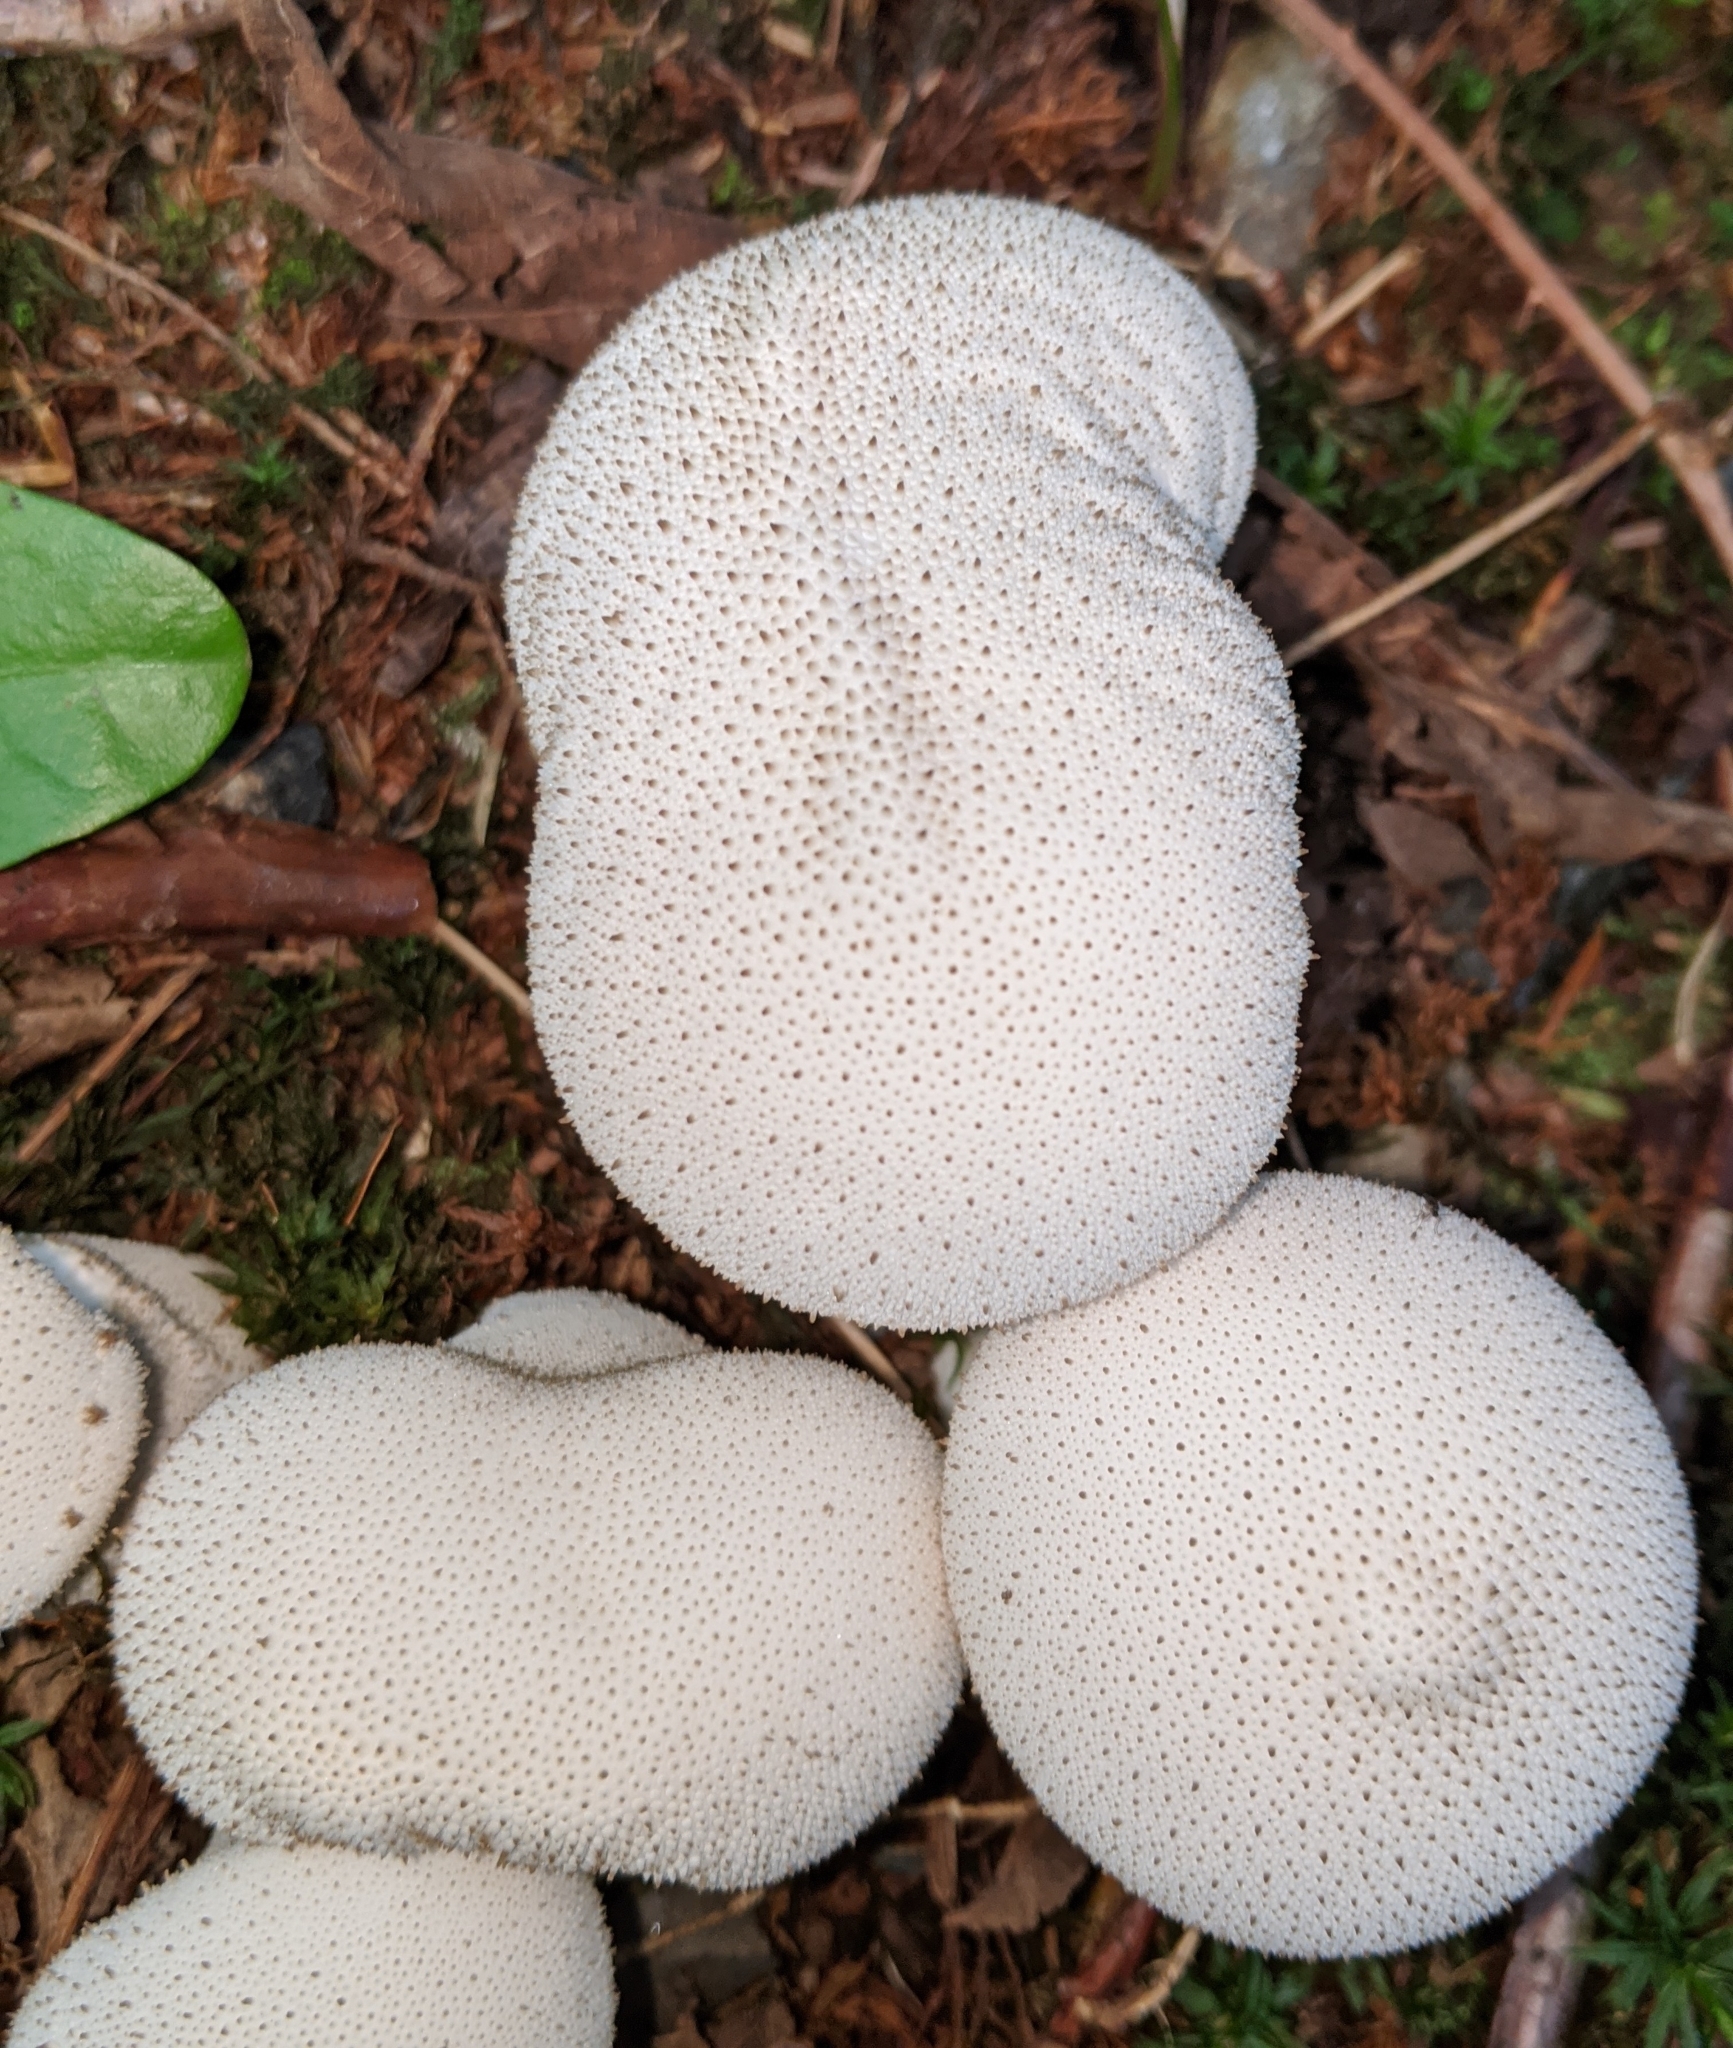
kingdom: Fungi
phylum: Basidiomycota
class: Agaricomycetes
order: Agaricales
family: Lycoperdaceae
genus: Lycoperdon
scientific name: Lycoperdon perlatum
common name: Common puffball
